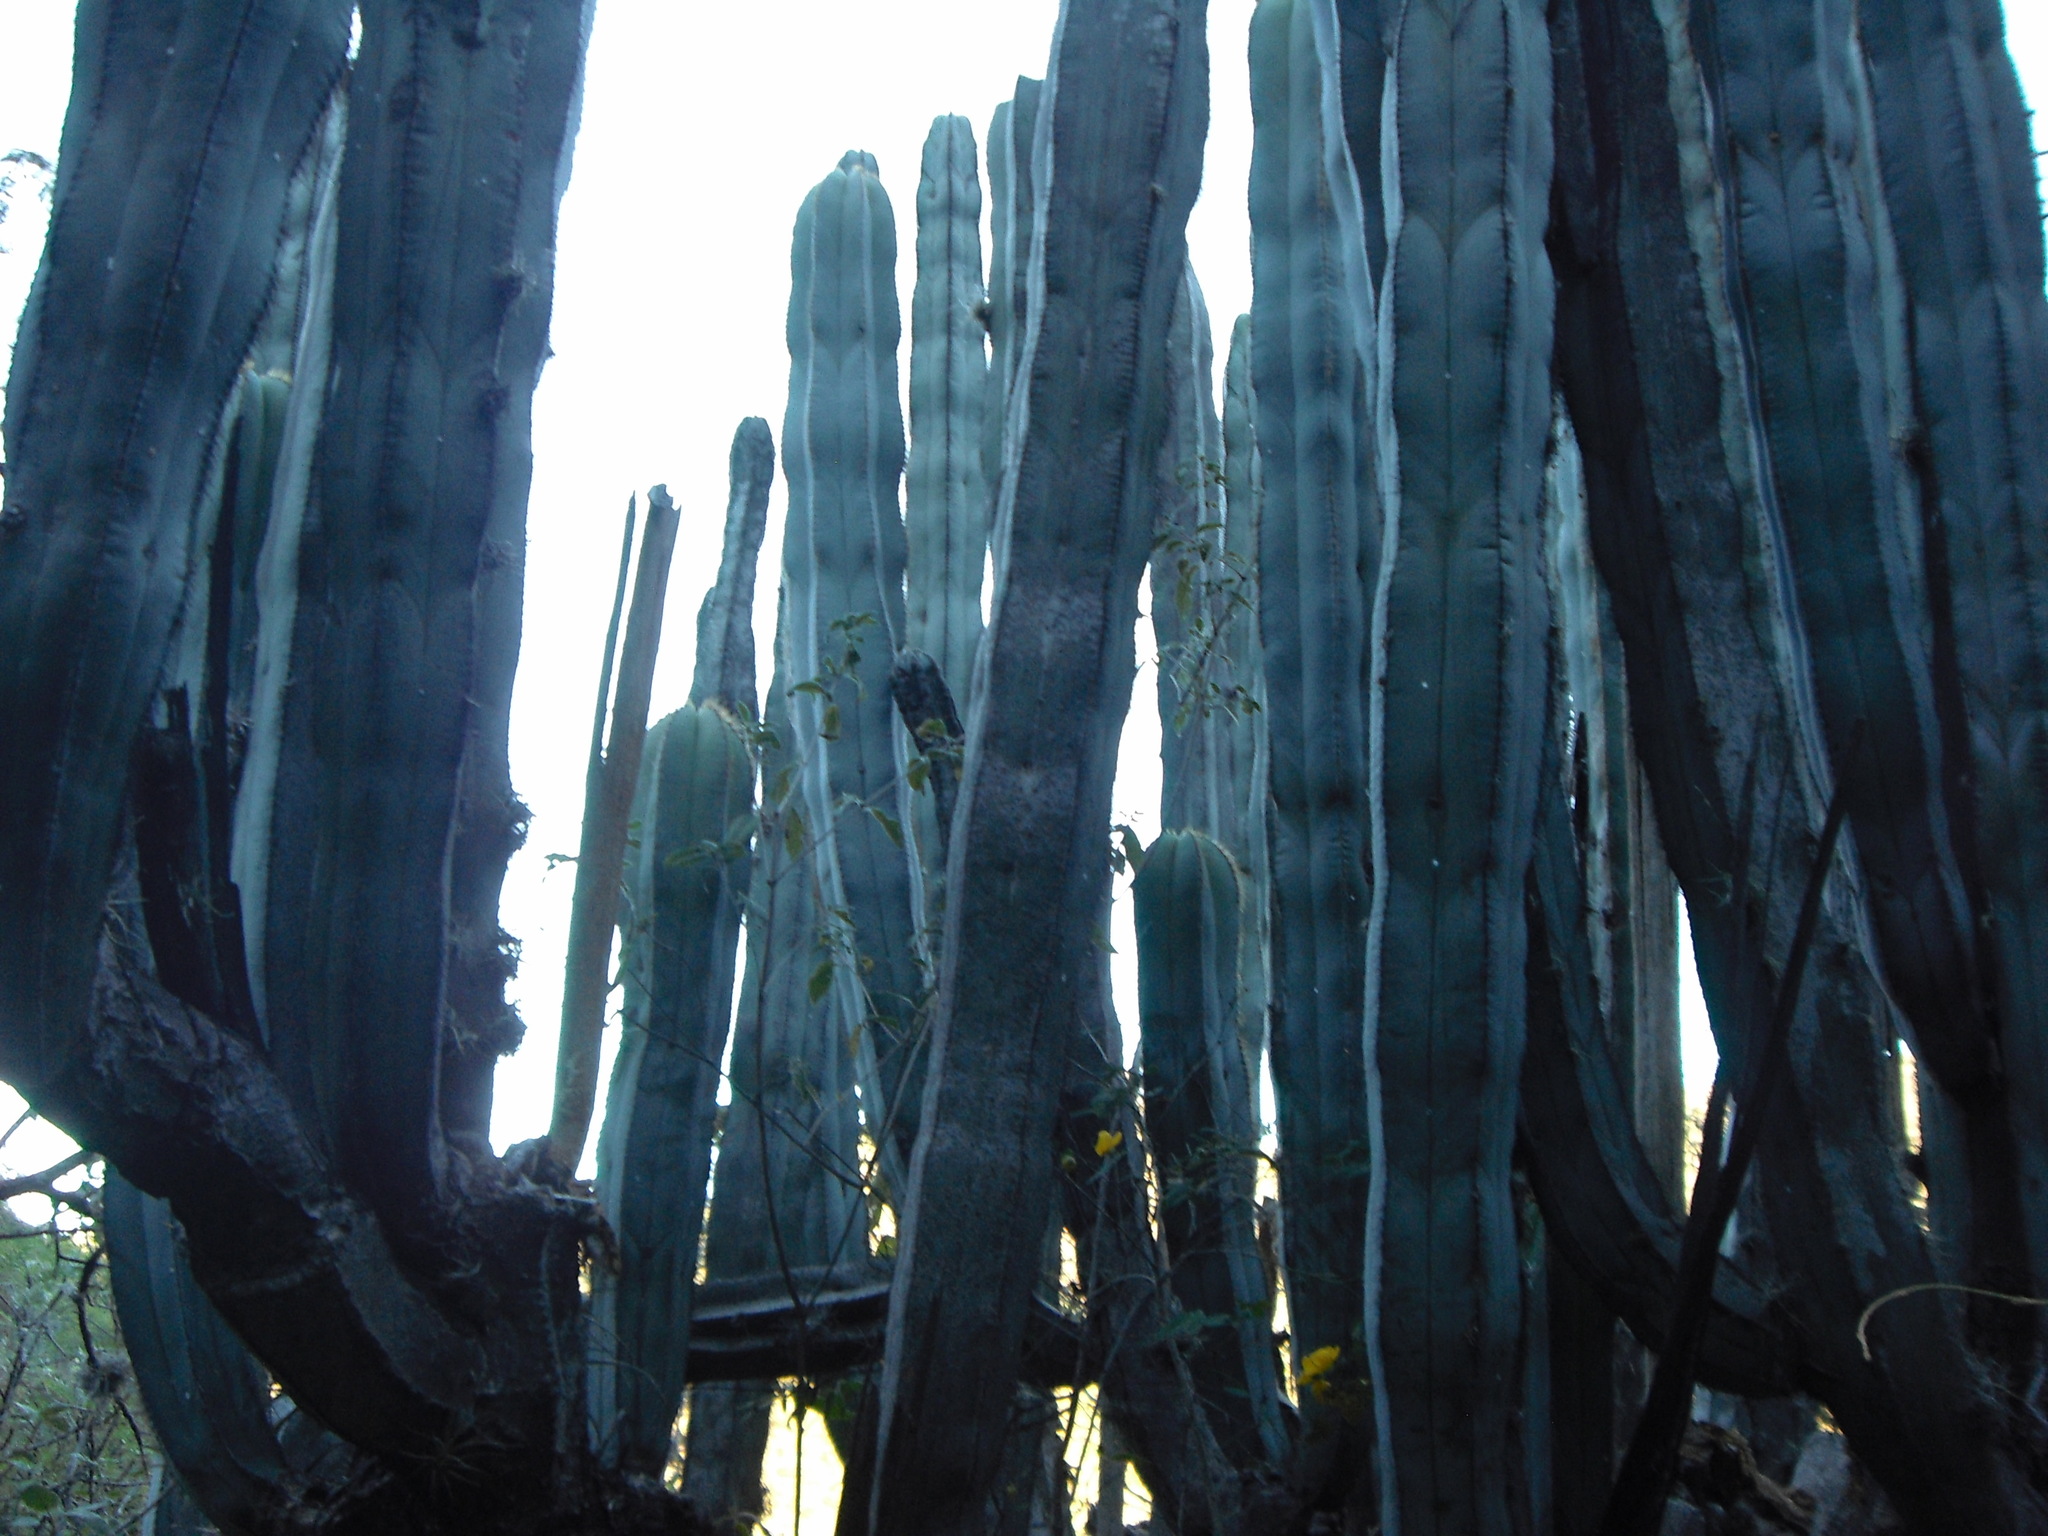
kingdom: Plantae
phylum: Tracheophyta
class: Magnoliopsida
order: Caryophyllales
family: Cactaceae
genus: Stenocereus
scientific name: Stenocereus dumortieri
